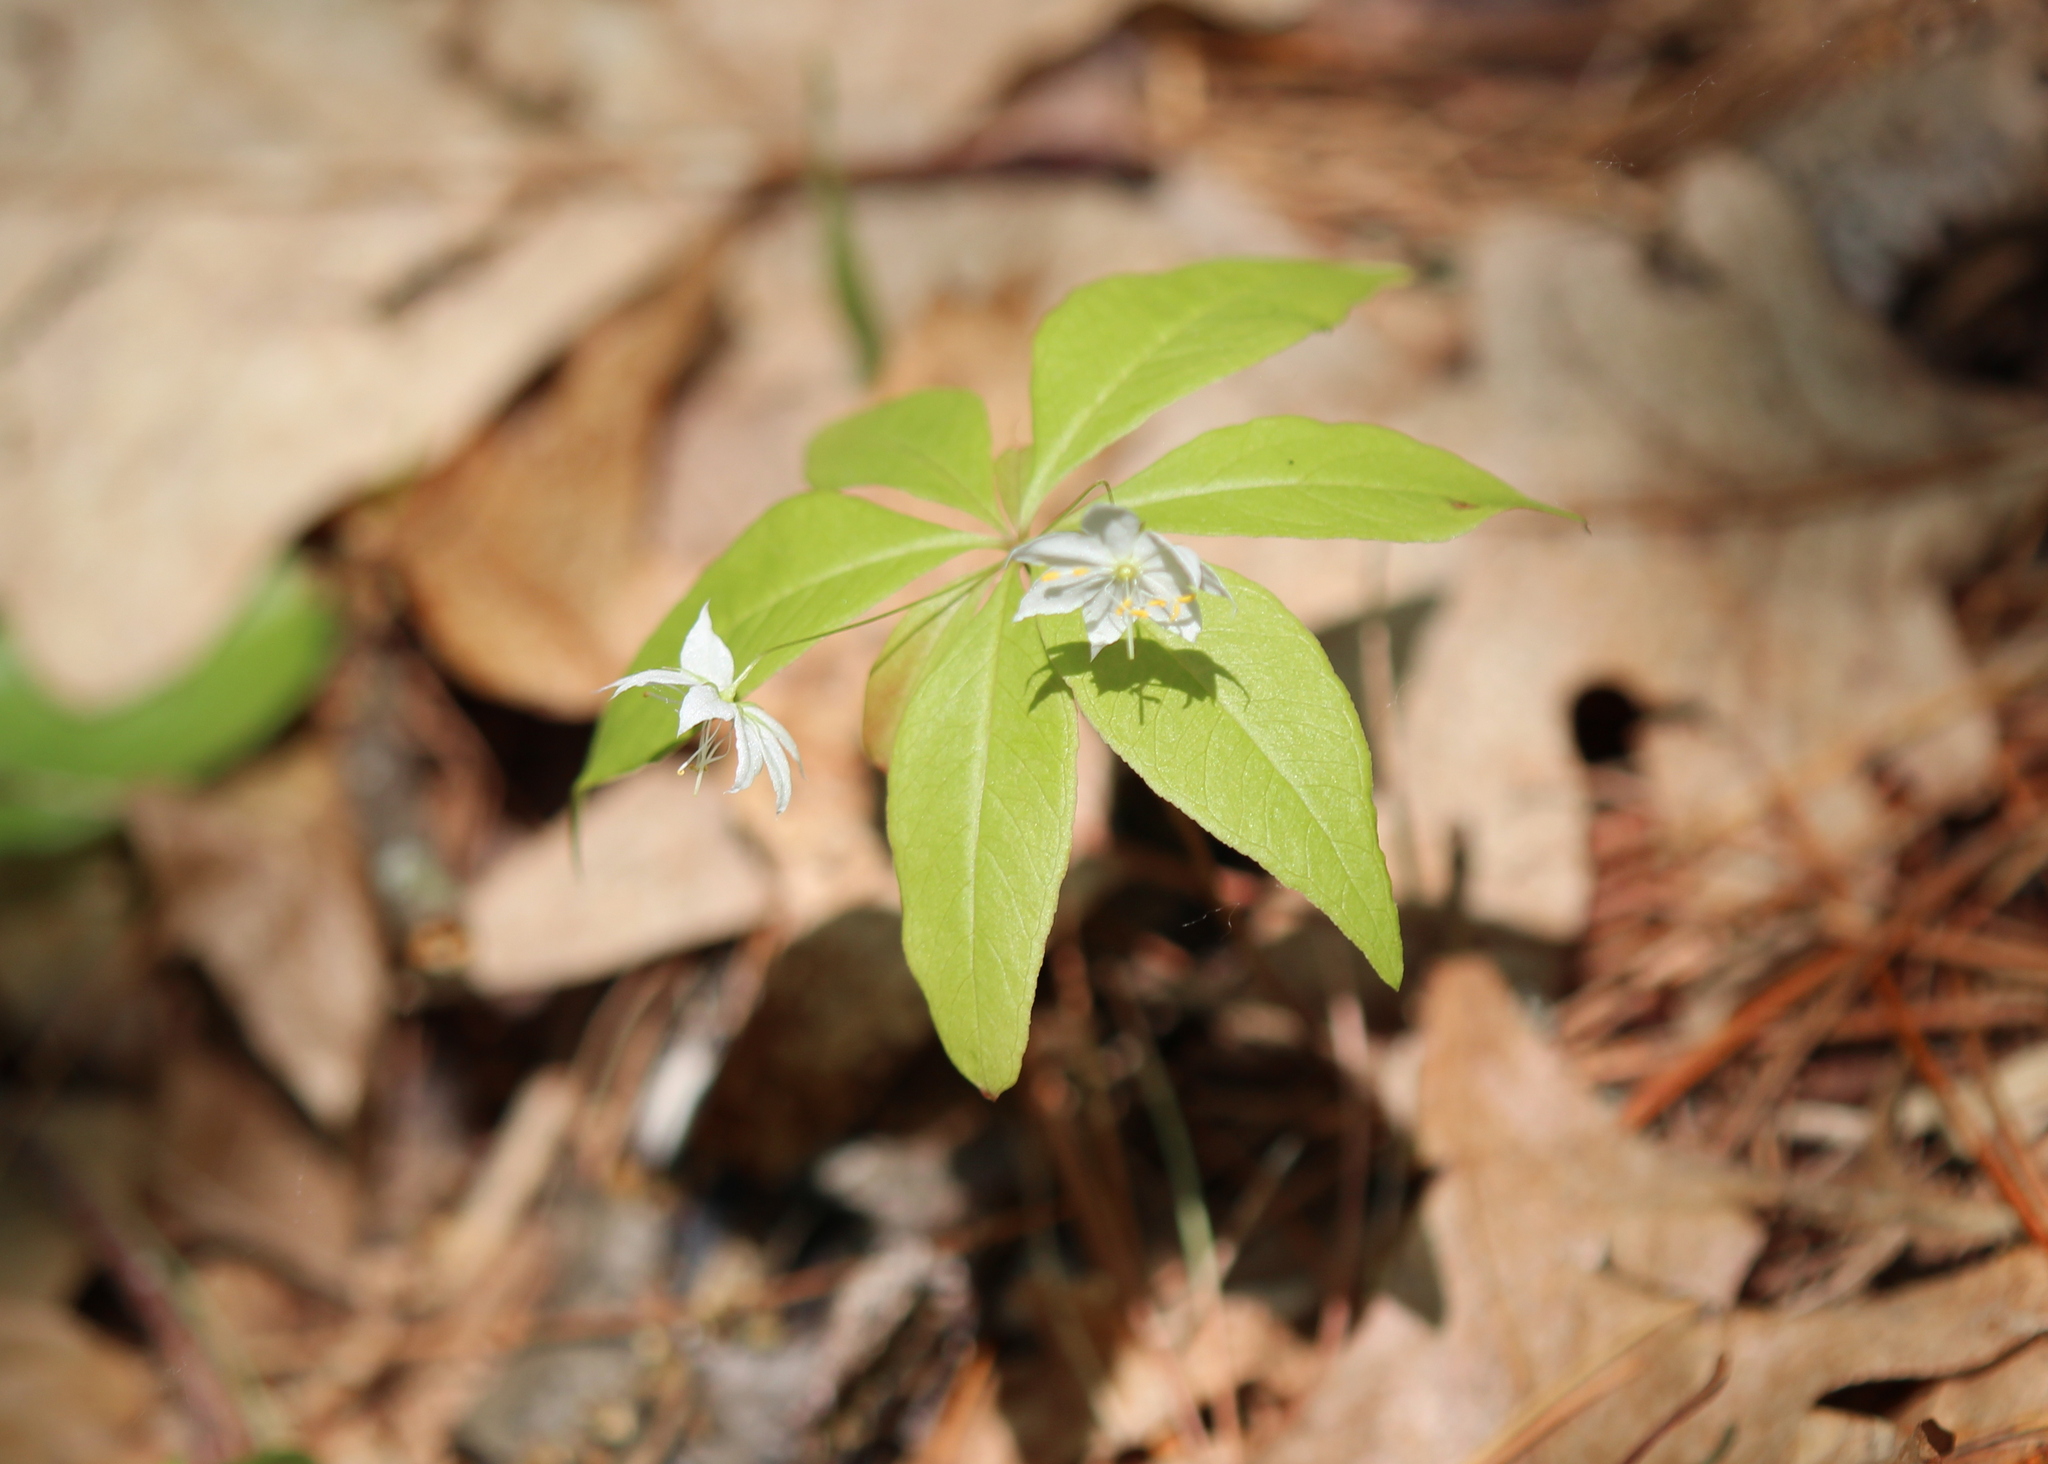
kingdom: Plantae
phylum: Tracheophyta
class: Magnoliopsida
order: Ericales
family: Primulaceae
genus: Lysimachia
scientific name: Lysimachia borealis
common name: American starflower
